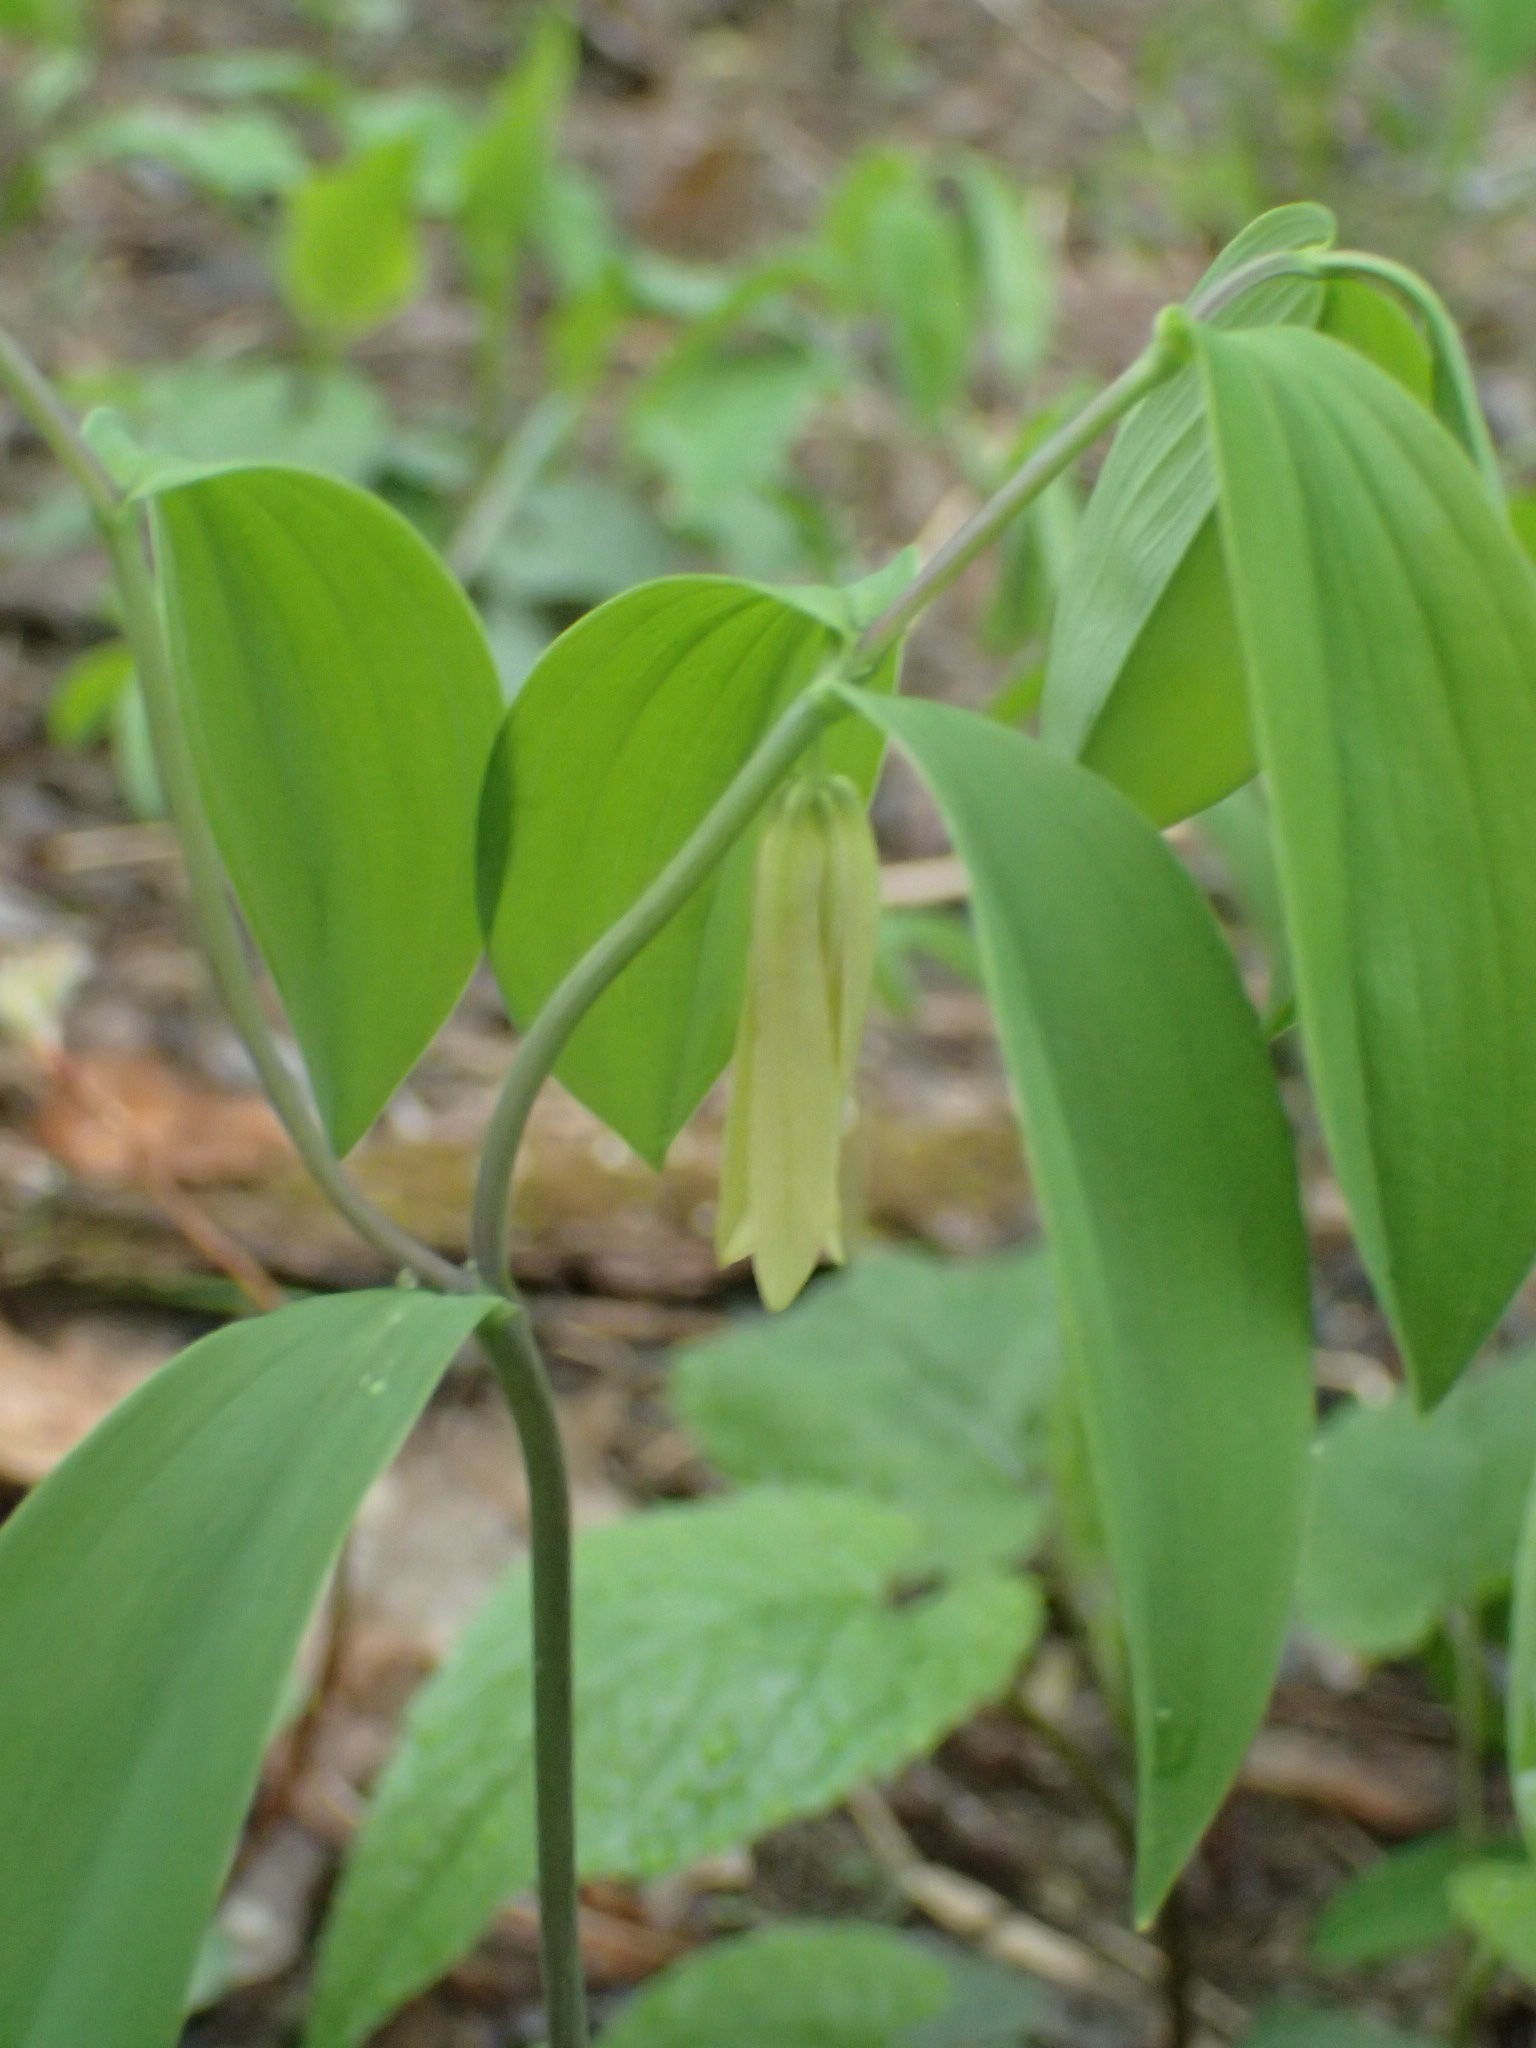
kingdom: Plantae
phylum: Tracheophyta
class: Liliopsida
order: Liliales
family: Colchicaceae
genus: Uvularia
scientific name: Uvularia sessilifolia
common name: Straw-lily
